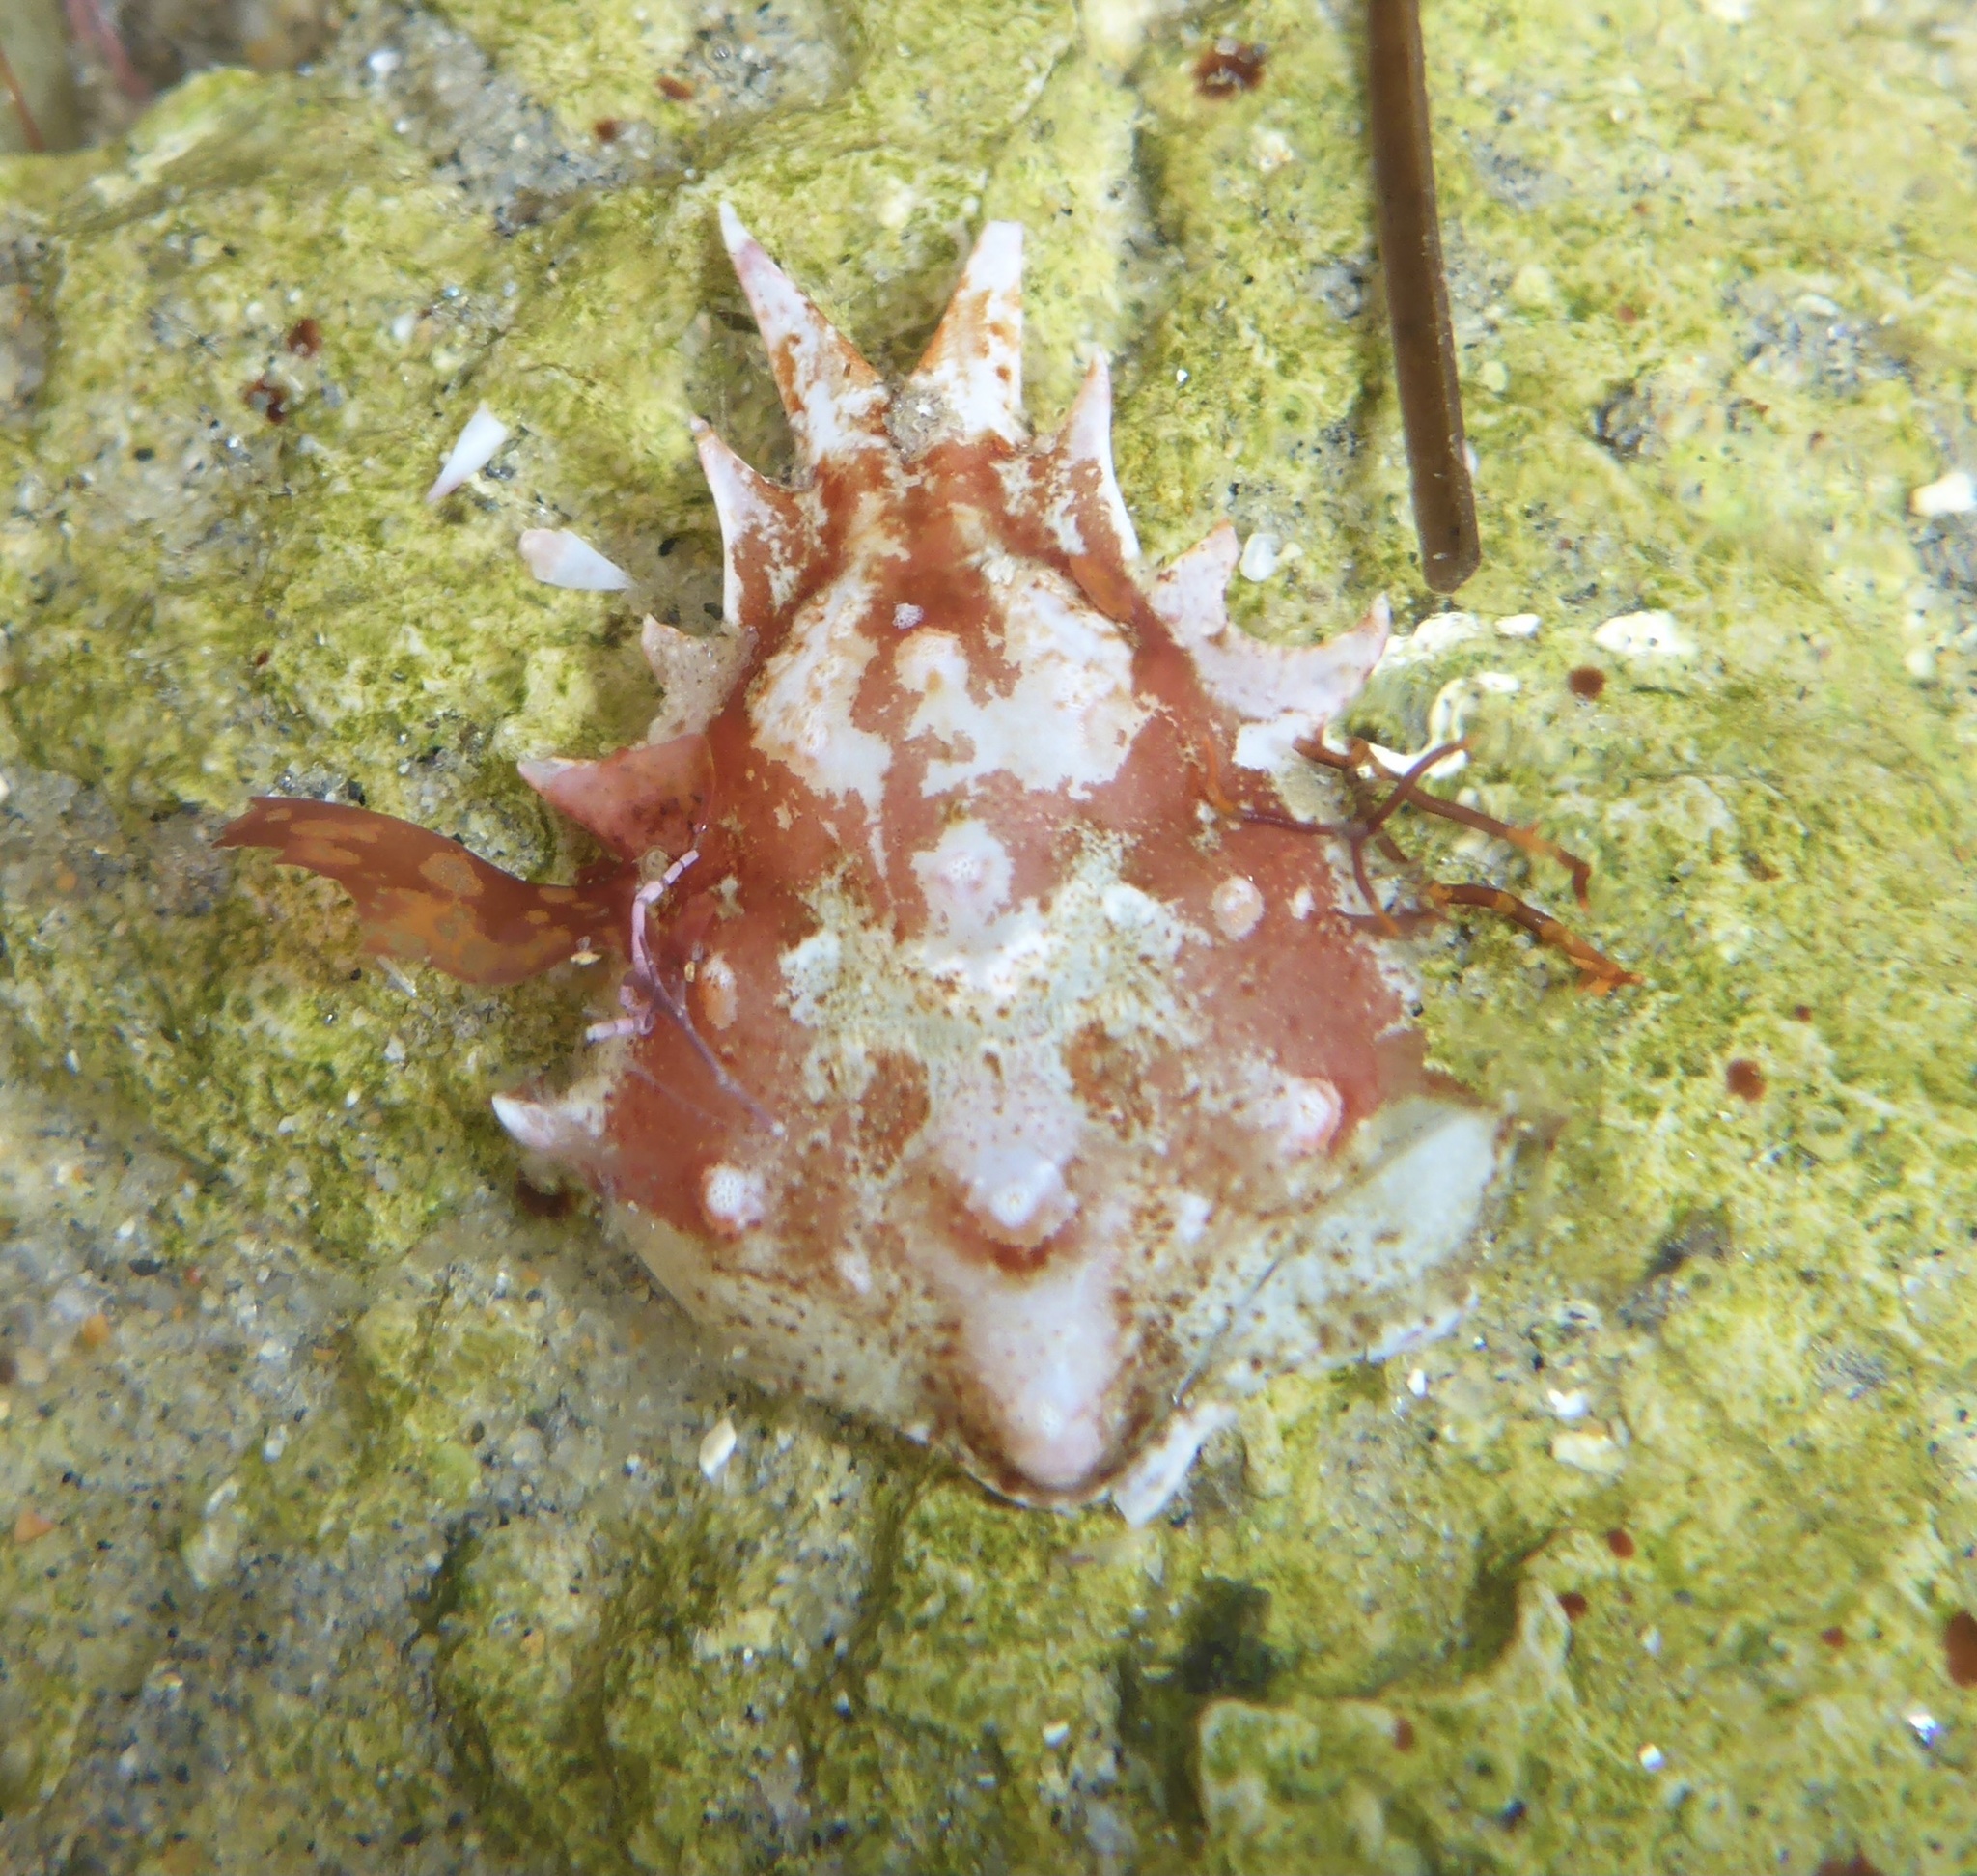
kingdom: Animalia
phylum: Arthropoda
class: Malacostraca
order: Decapoda
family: Epialtidae
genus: Pugettia
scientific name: Pugettia richii
